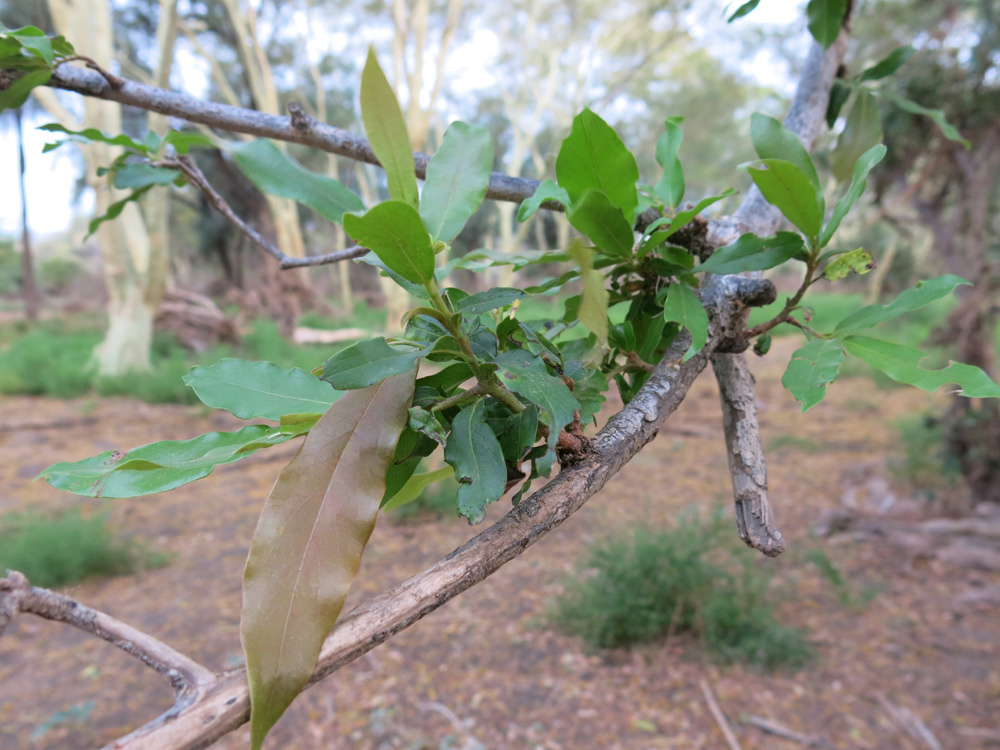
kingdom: Plantae
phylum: Tracheophyta
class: Magnoliopsida
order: Ericales
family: Ebenaceae
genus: Diospyros
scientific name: Diospyros mespiliformis
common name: Ebony diospyros
